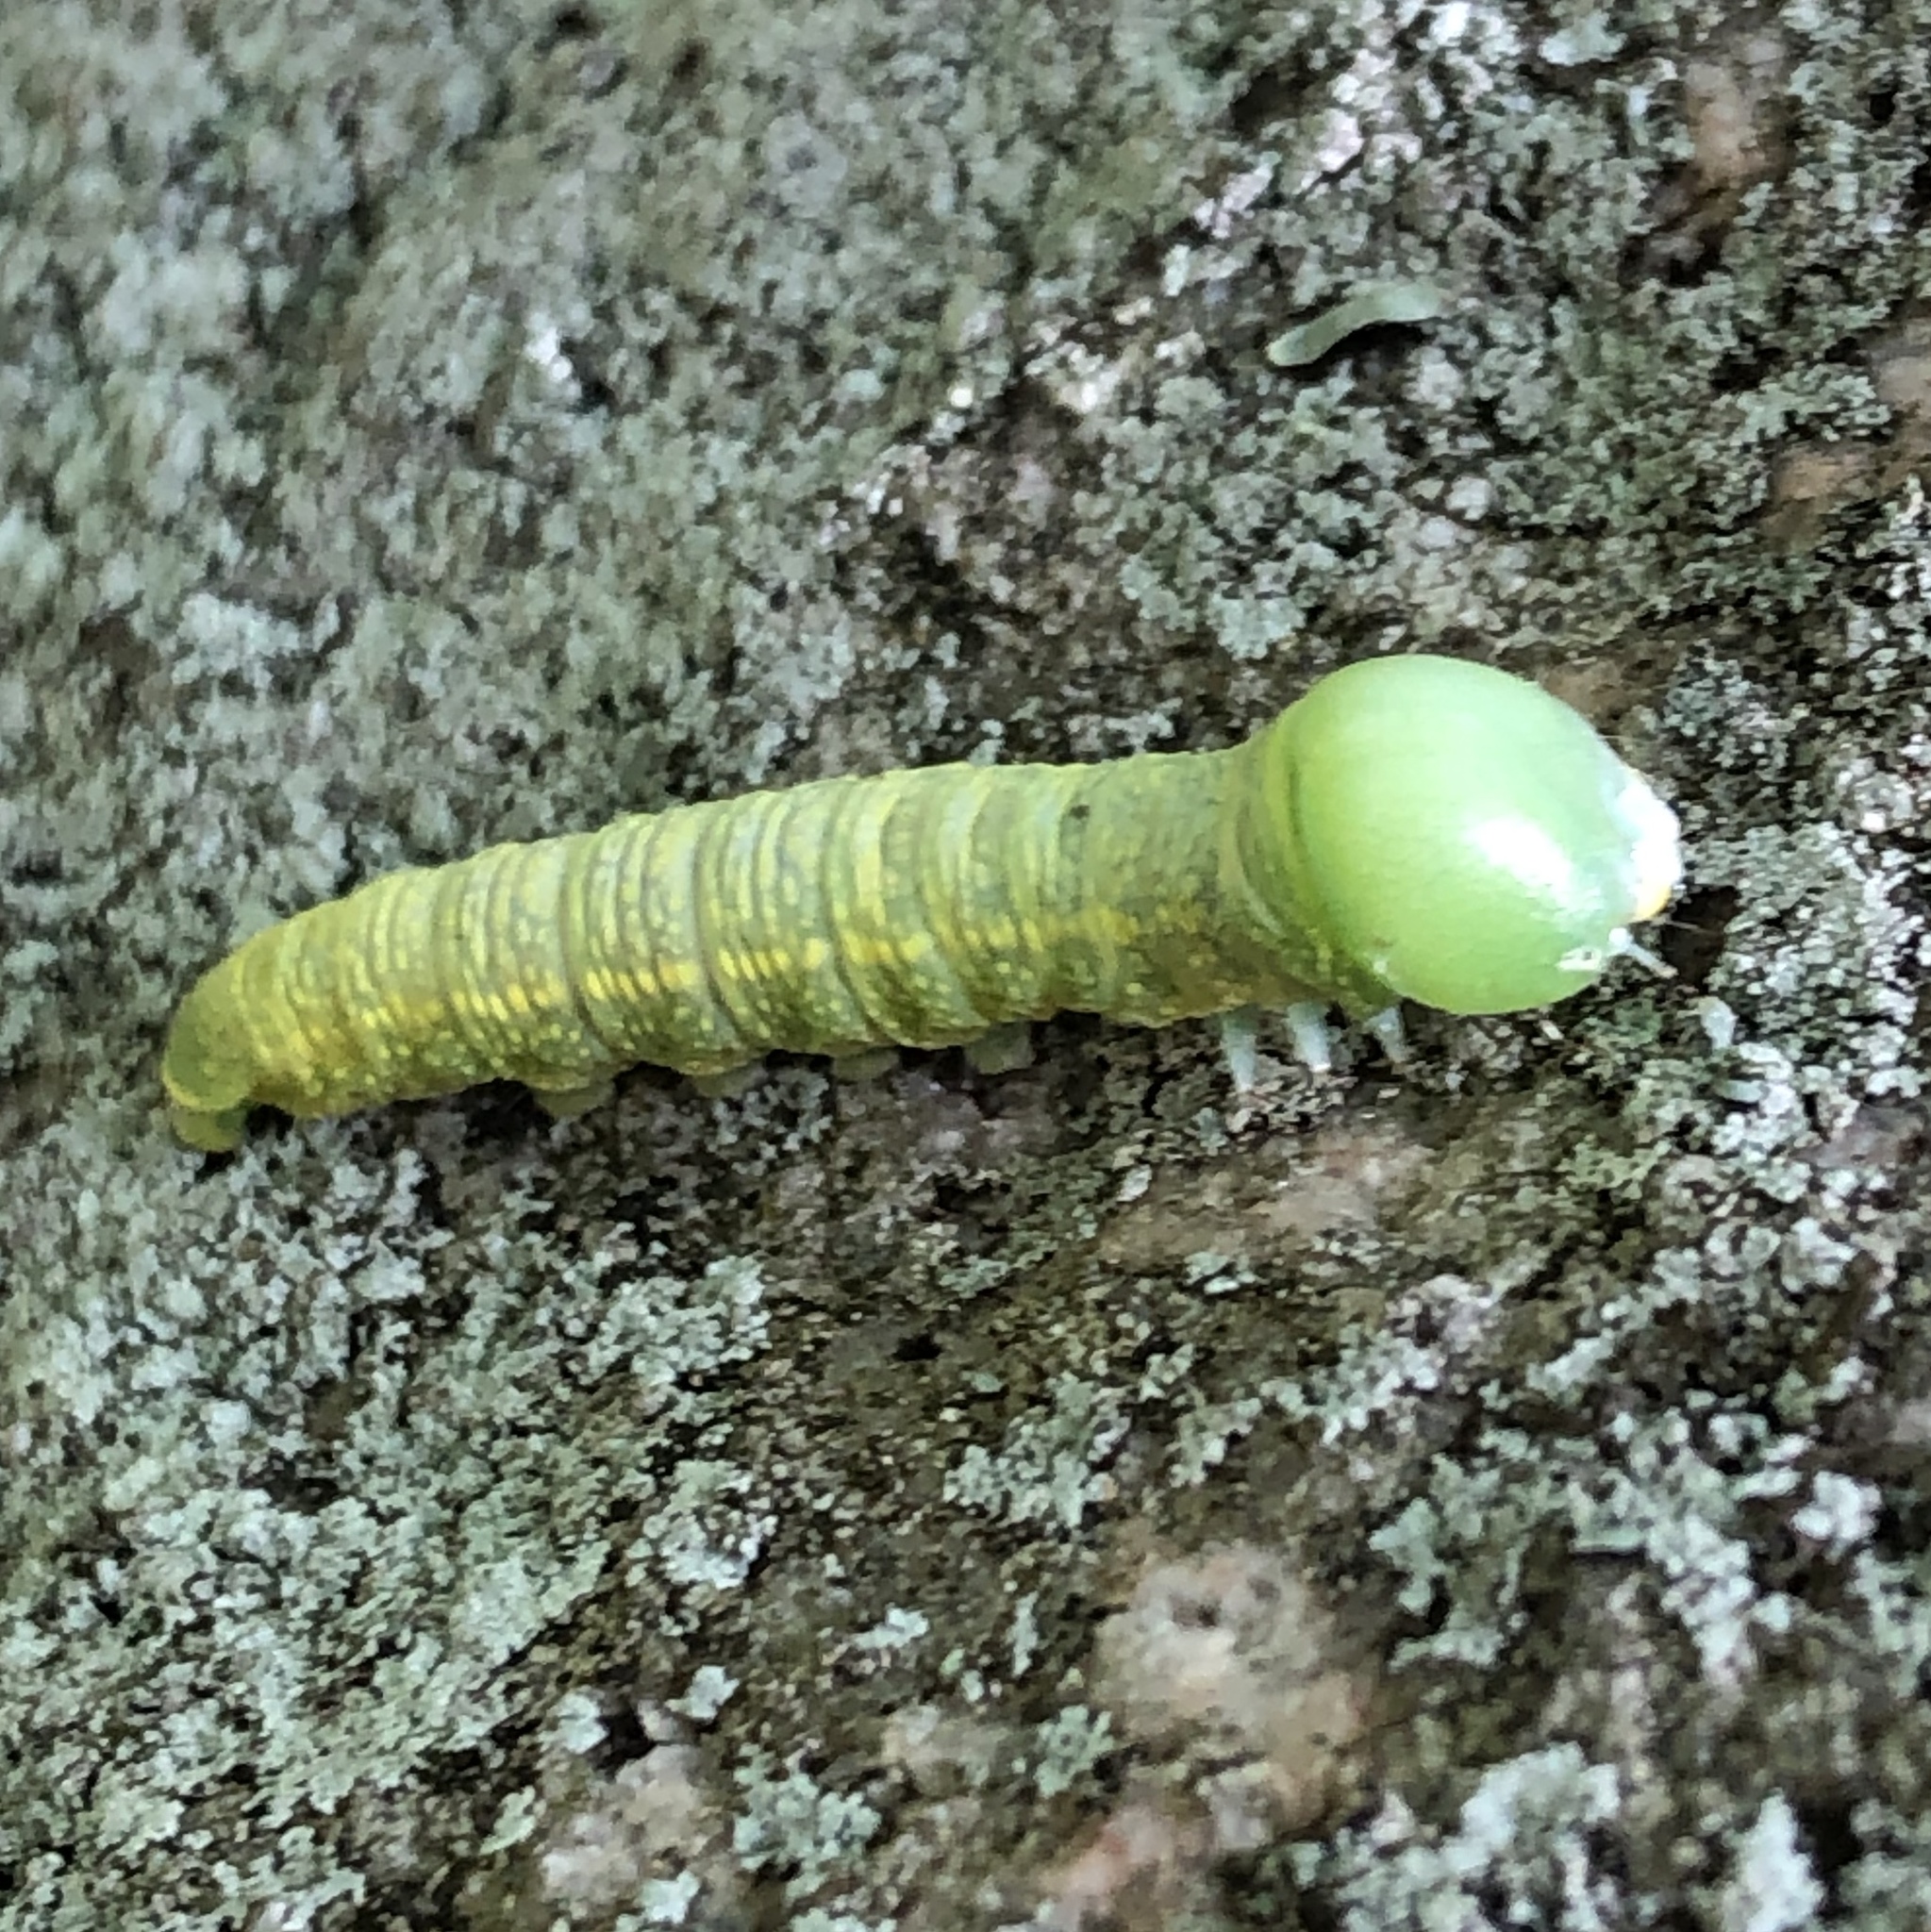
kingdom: Animalia
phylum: Arthropoda
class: Insecta
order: Lepidoptera
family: Notodontidae
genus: Nadata
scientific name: Nadata gibbosa
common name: White-dotted prominent
